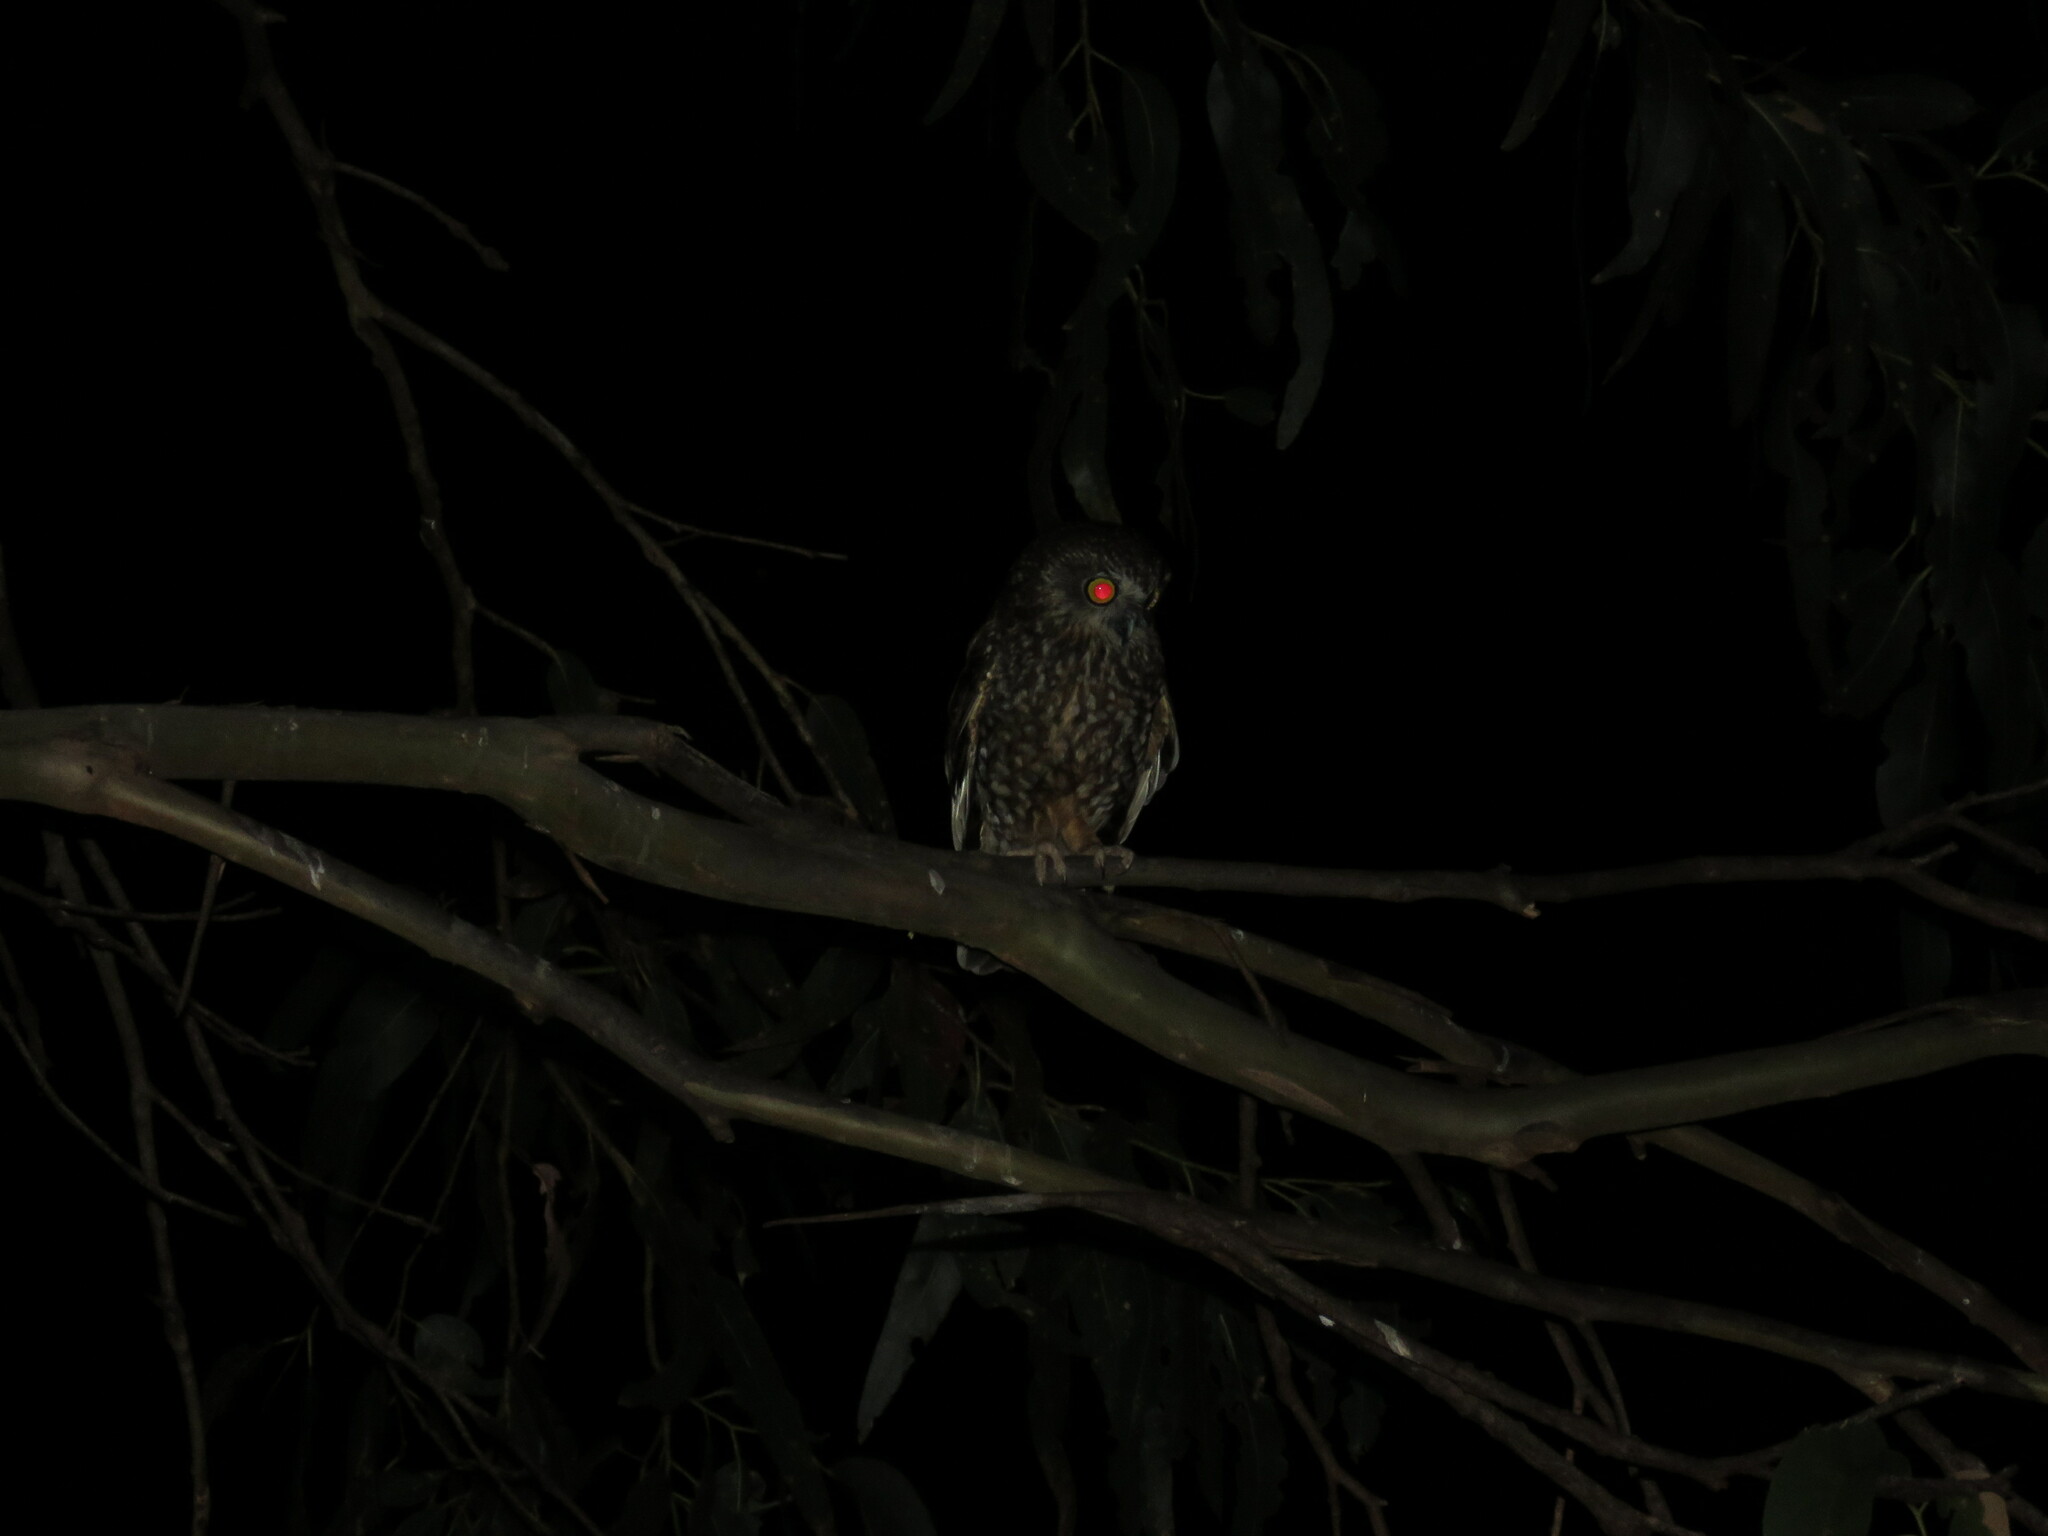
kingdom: Animalia
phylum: Chordata
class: Aves
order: Strigiformes
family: Strigidae
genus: Ninox
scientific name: Ninox novaeseelandiae
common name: Morepork
